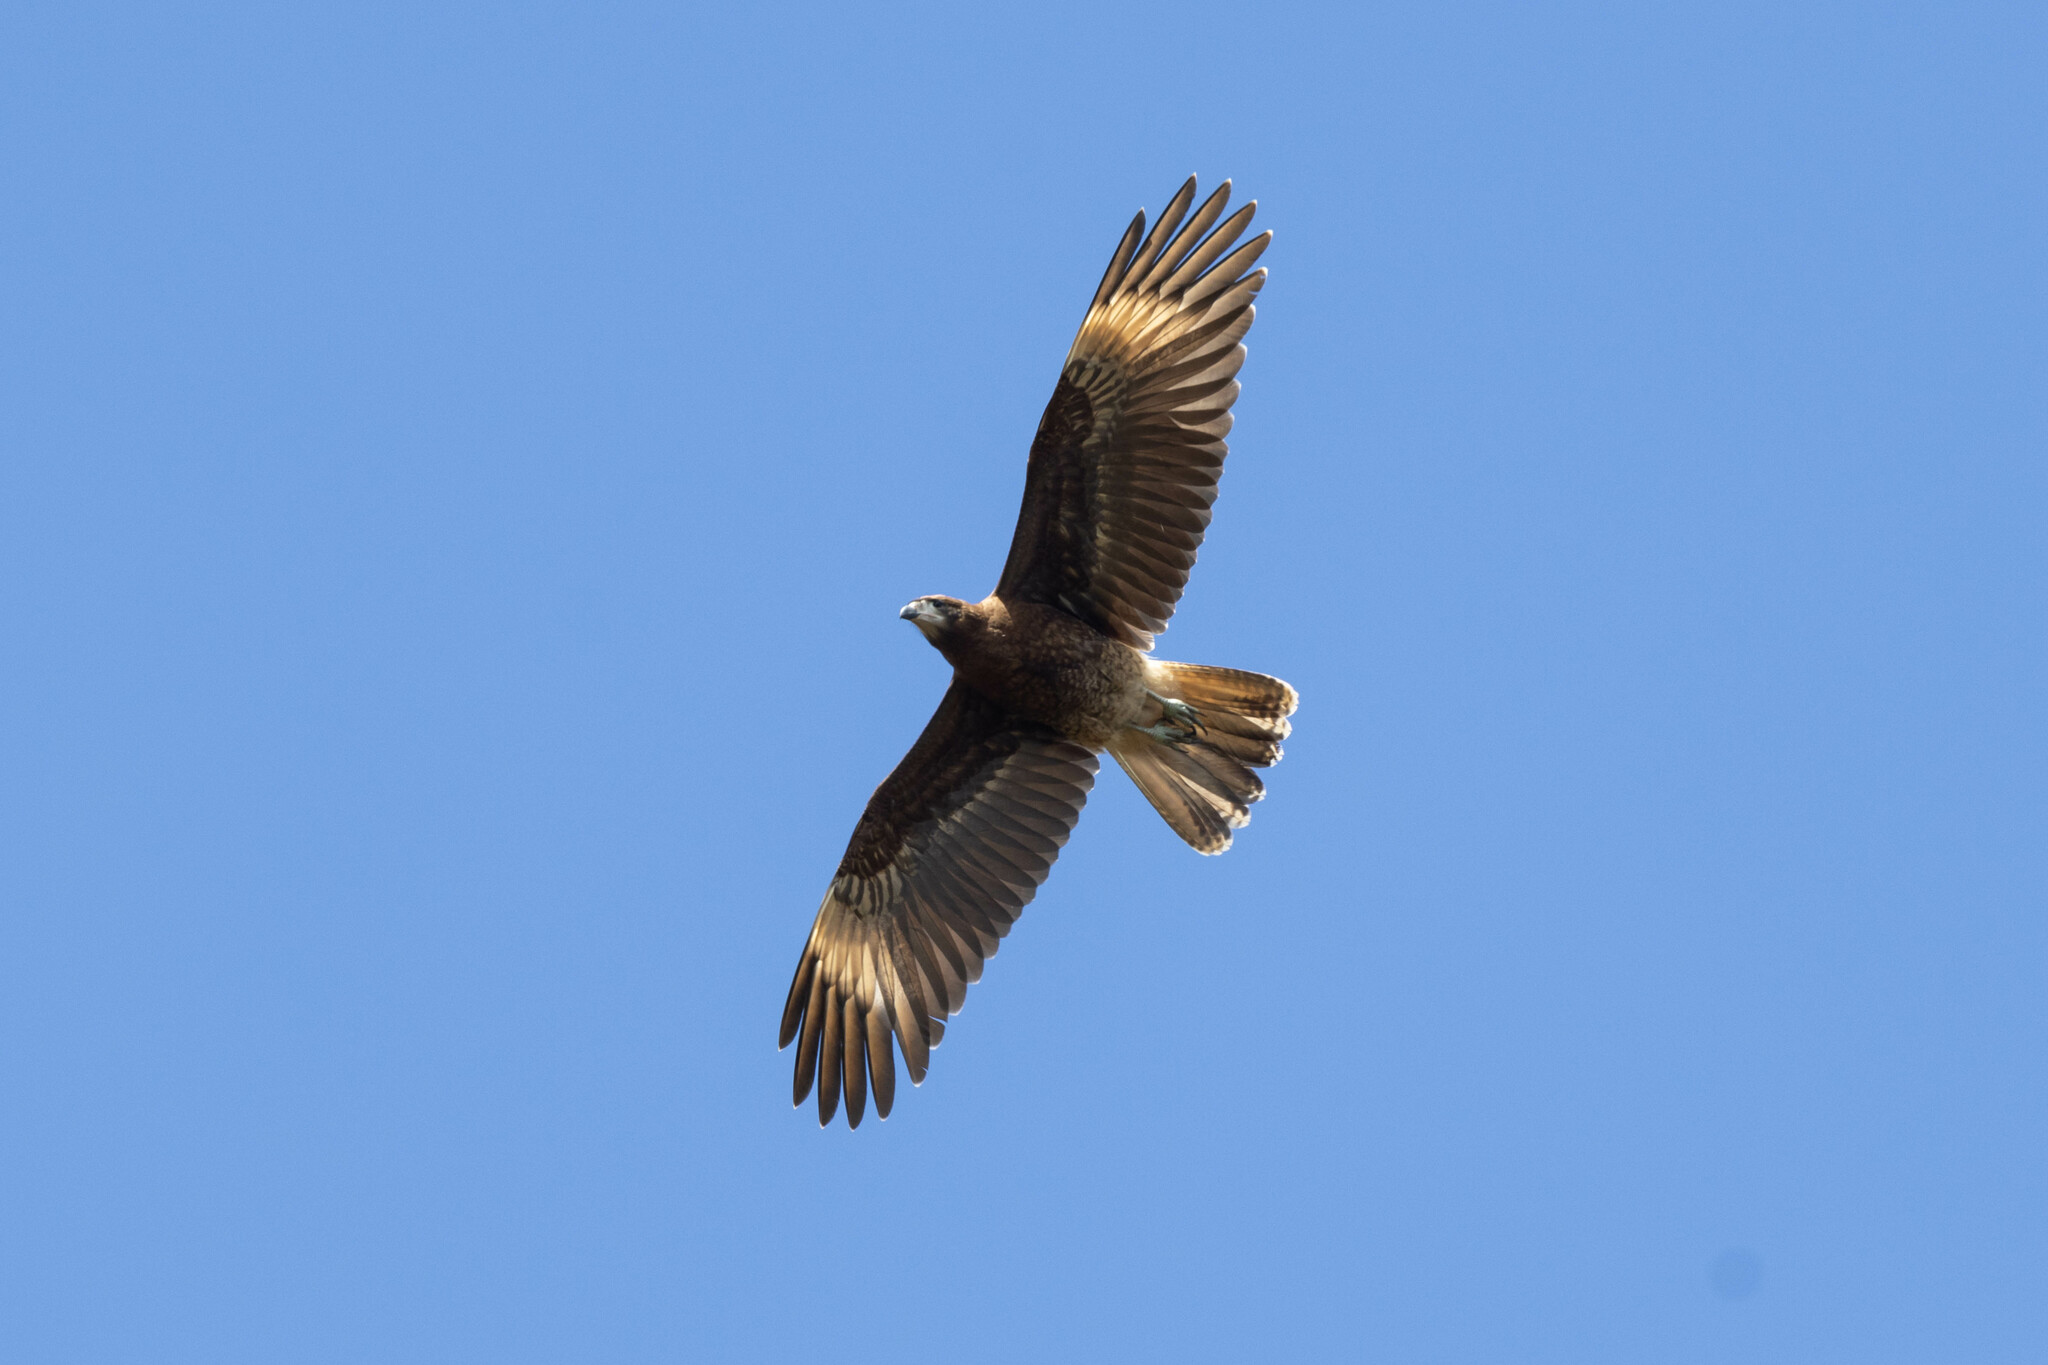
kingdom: Animalia
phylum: Chordata
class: Aves
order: Falconiformes
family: Falconidae
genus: Daptrius
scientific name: Daptrius
